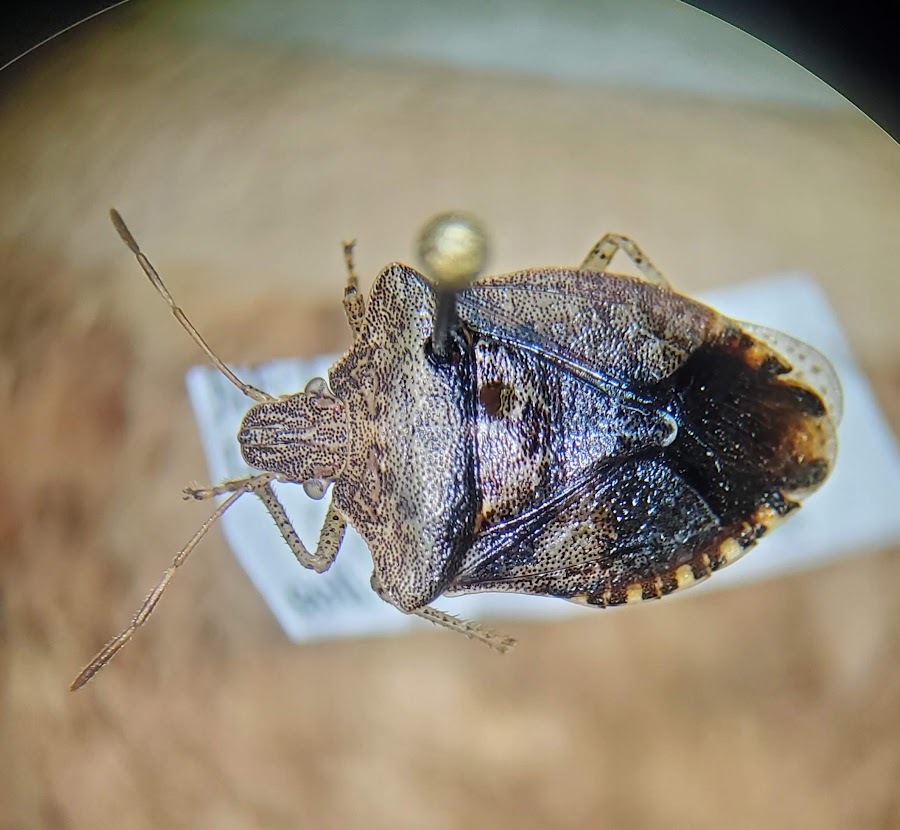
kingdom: Animalia
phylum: Arthropoda
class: Insecta
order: Hemiptera
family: Pentatomidae
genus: Euschistus
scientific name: Euschistus tristigmus
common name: Dusky stink bug
